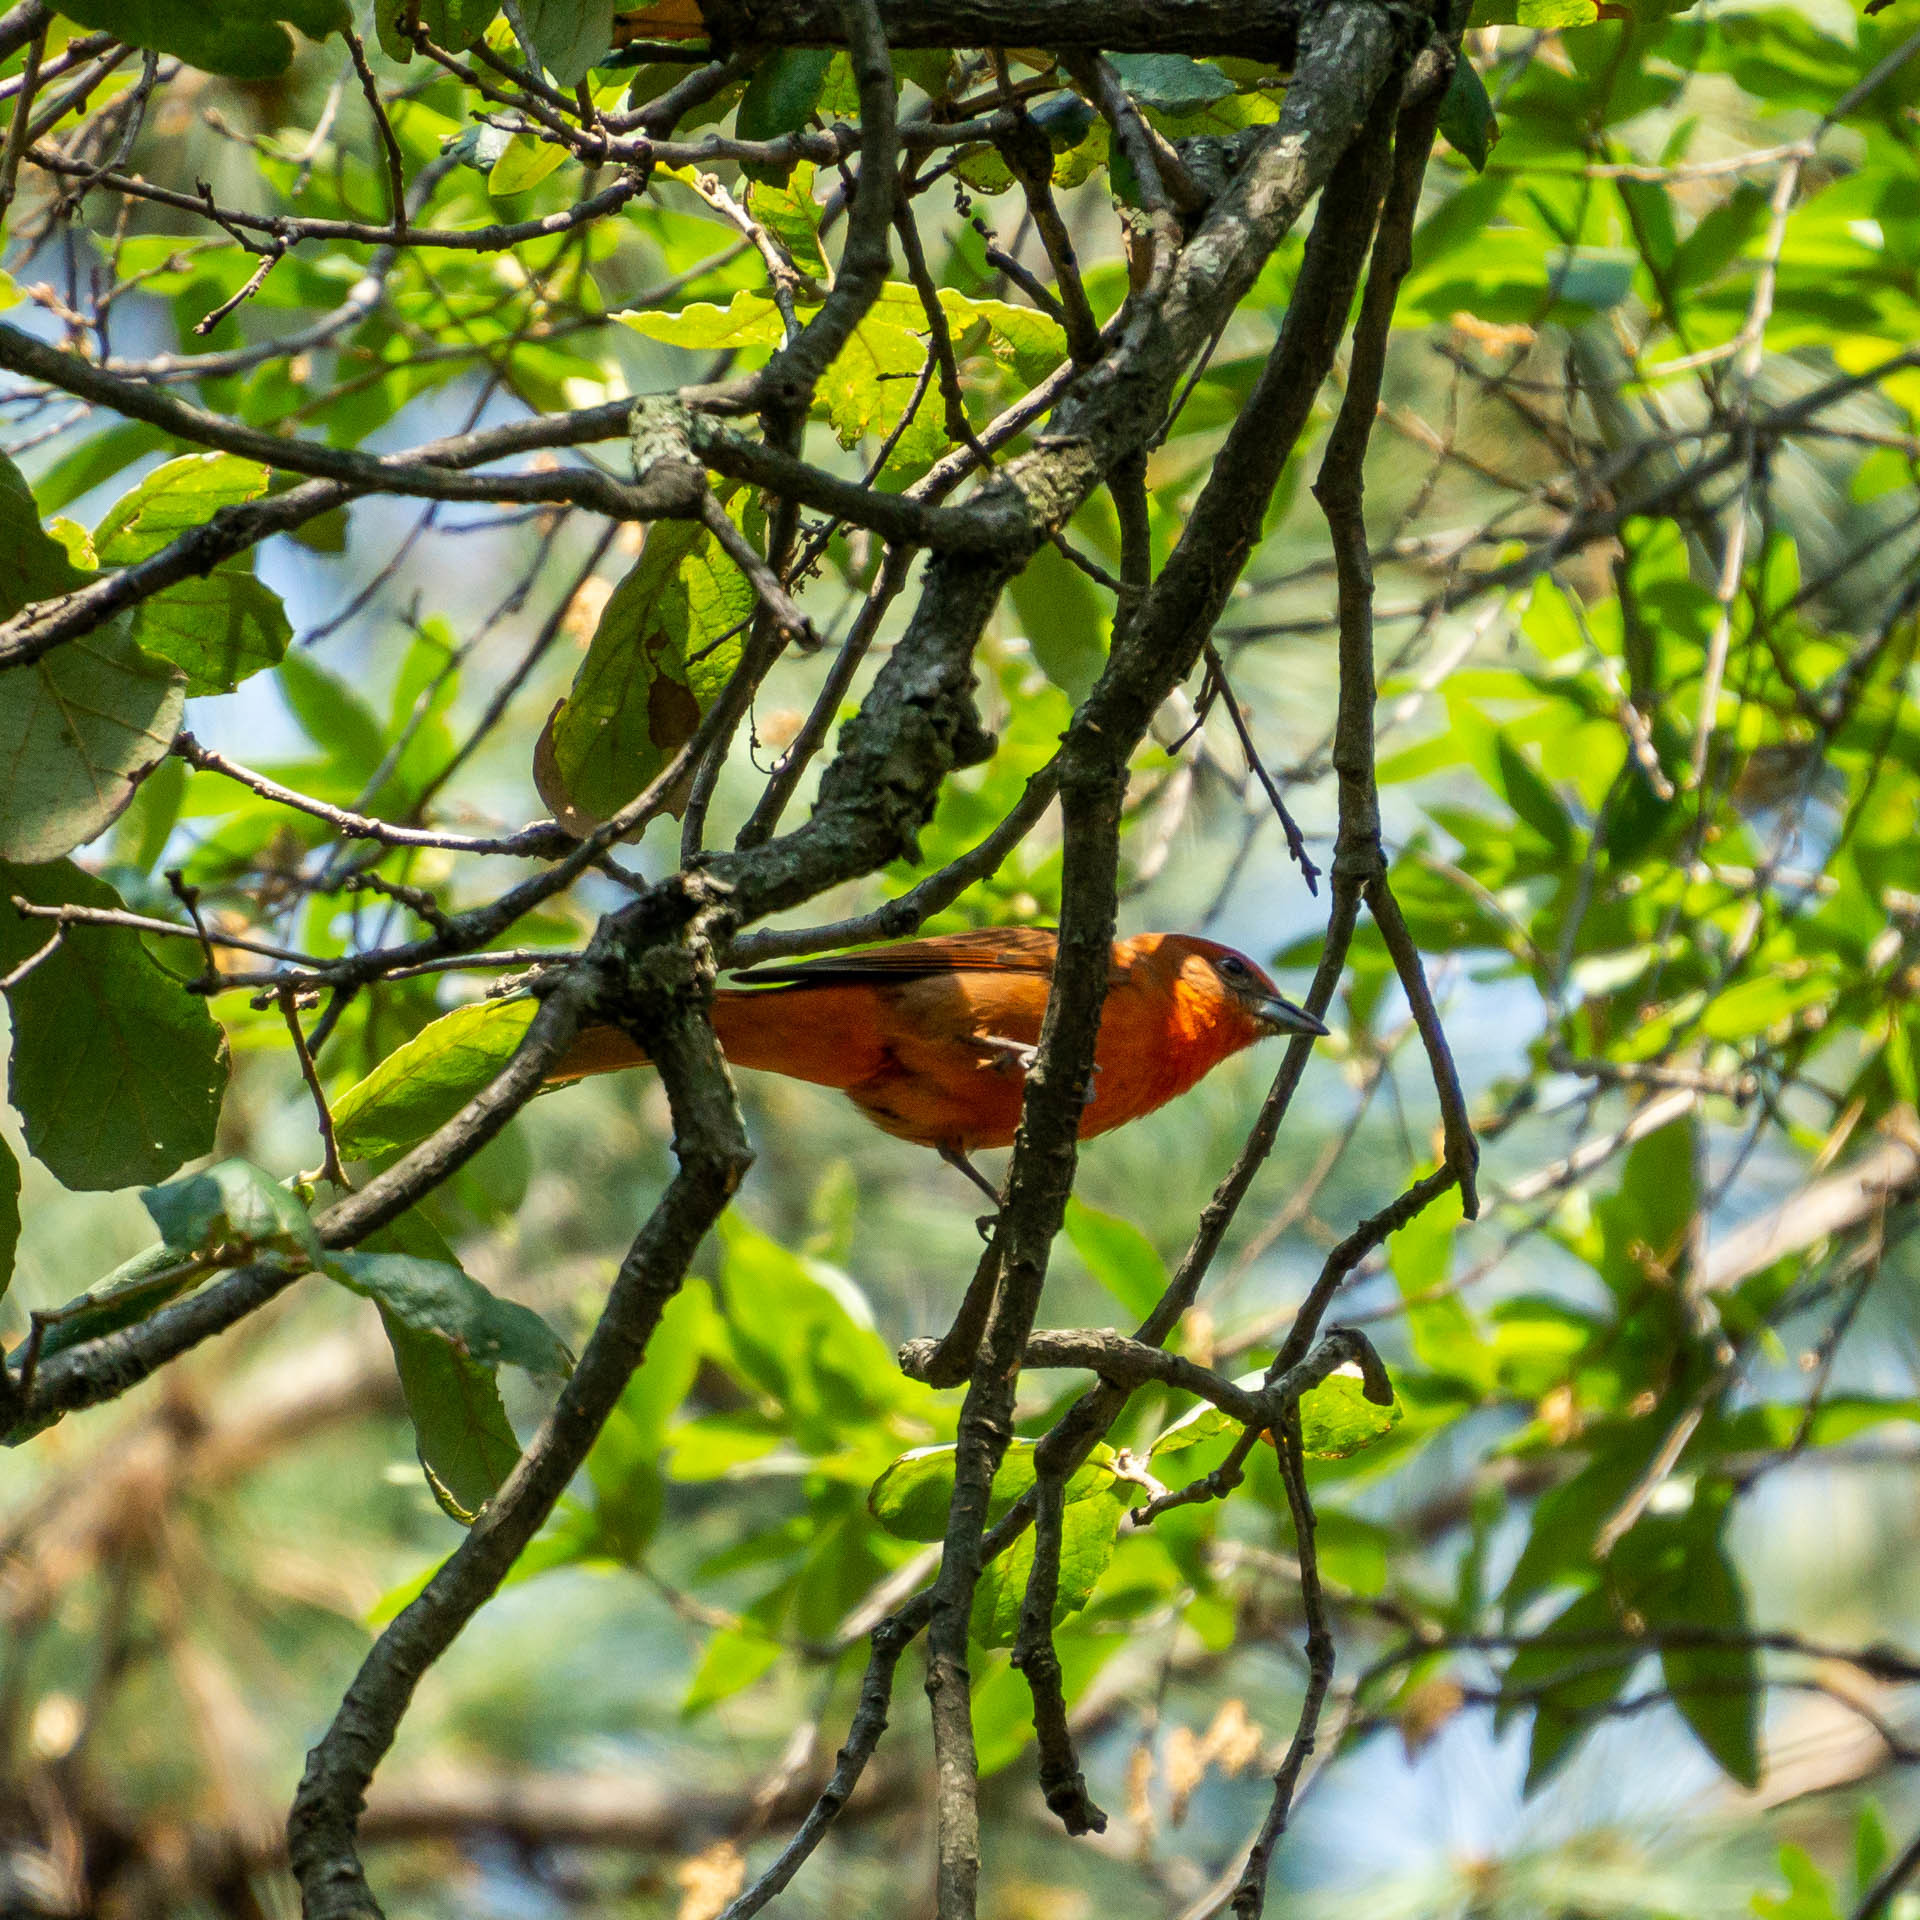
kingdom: Animalia
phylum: Chordata
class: Aves
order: Passeriformes
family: Cardinalidae
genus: Piranga
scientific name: Piranga rubra
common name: Summer tanager
